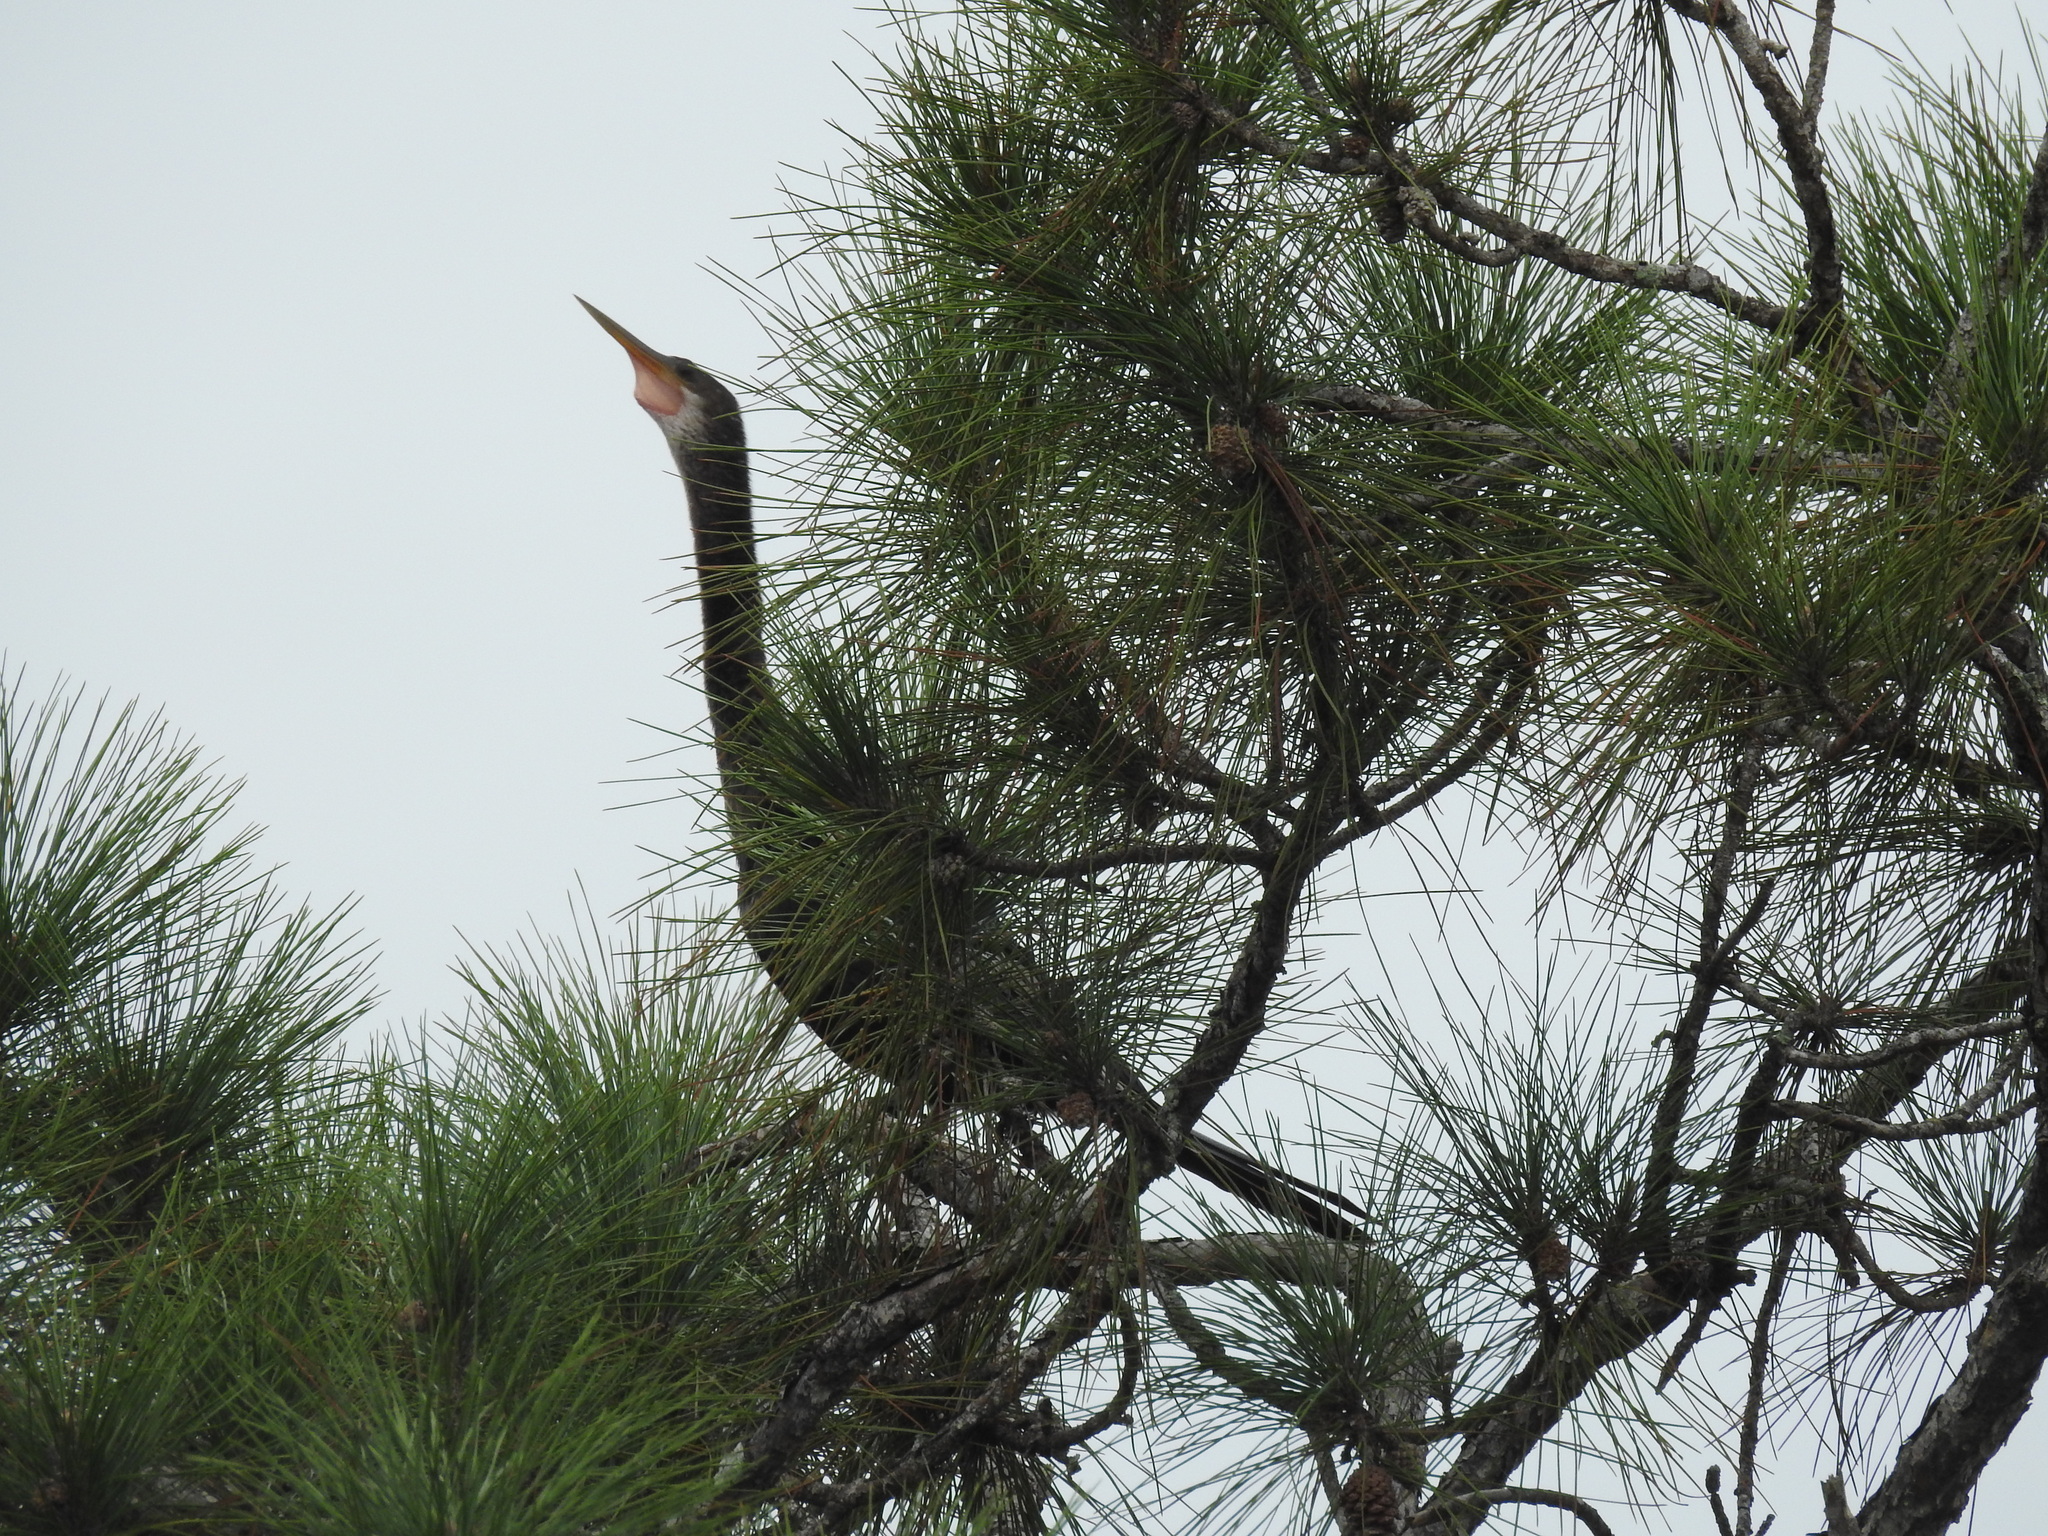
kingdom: Animalia
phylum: Chordata
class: Aves
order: Suliformes
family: Anhingidae
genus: Anhinga
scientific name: Anhinga anhinga
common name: Anhinga
